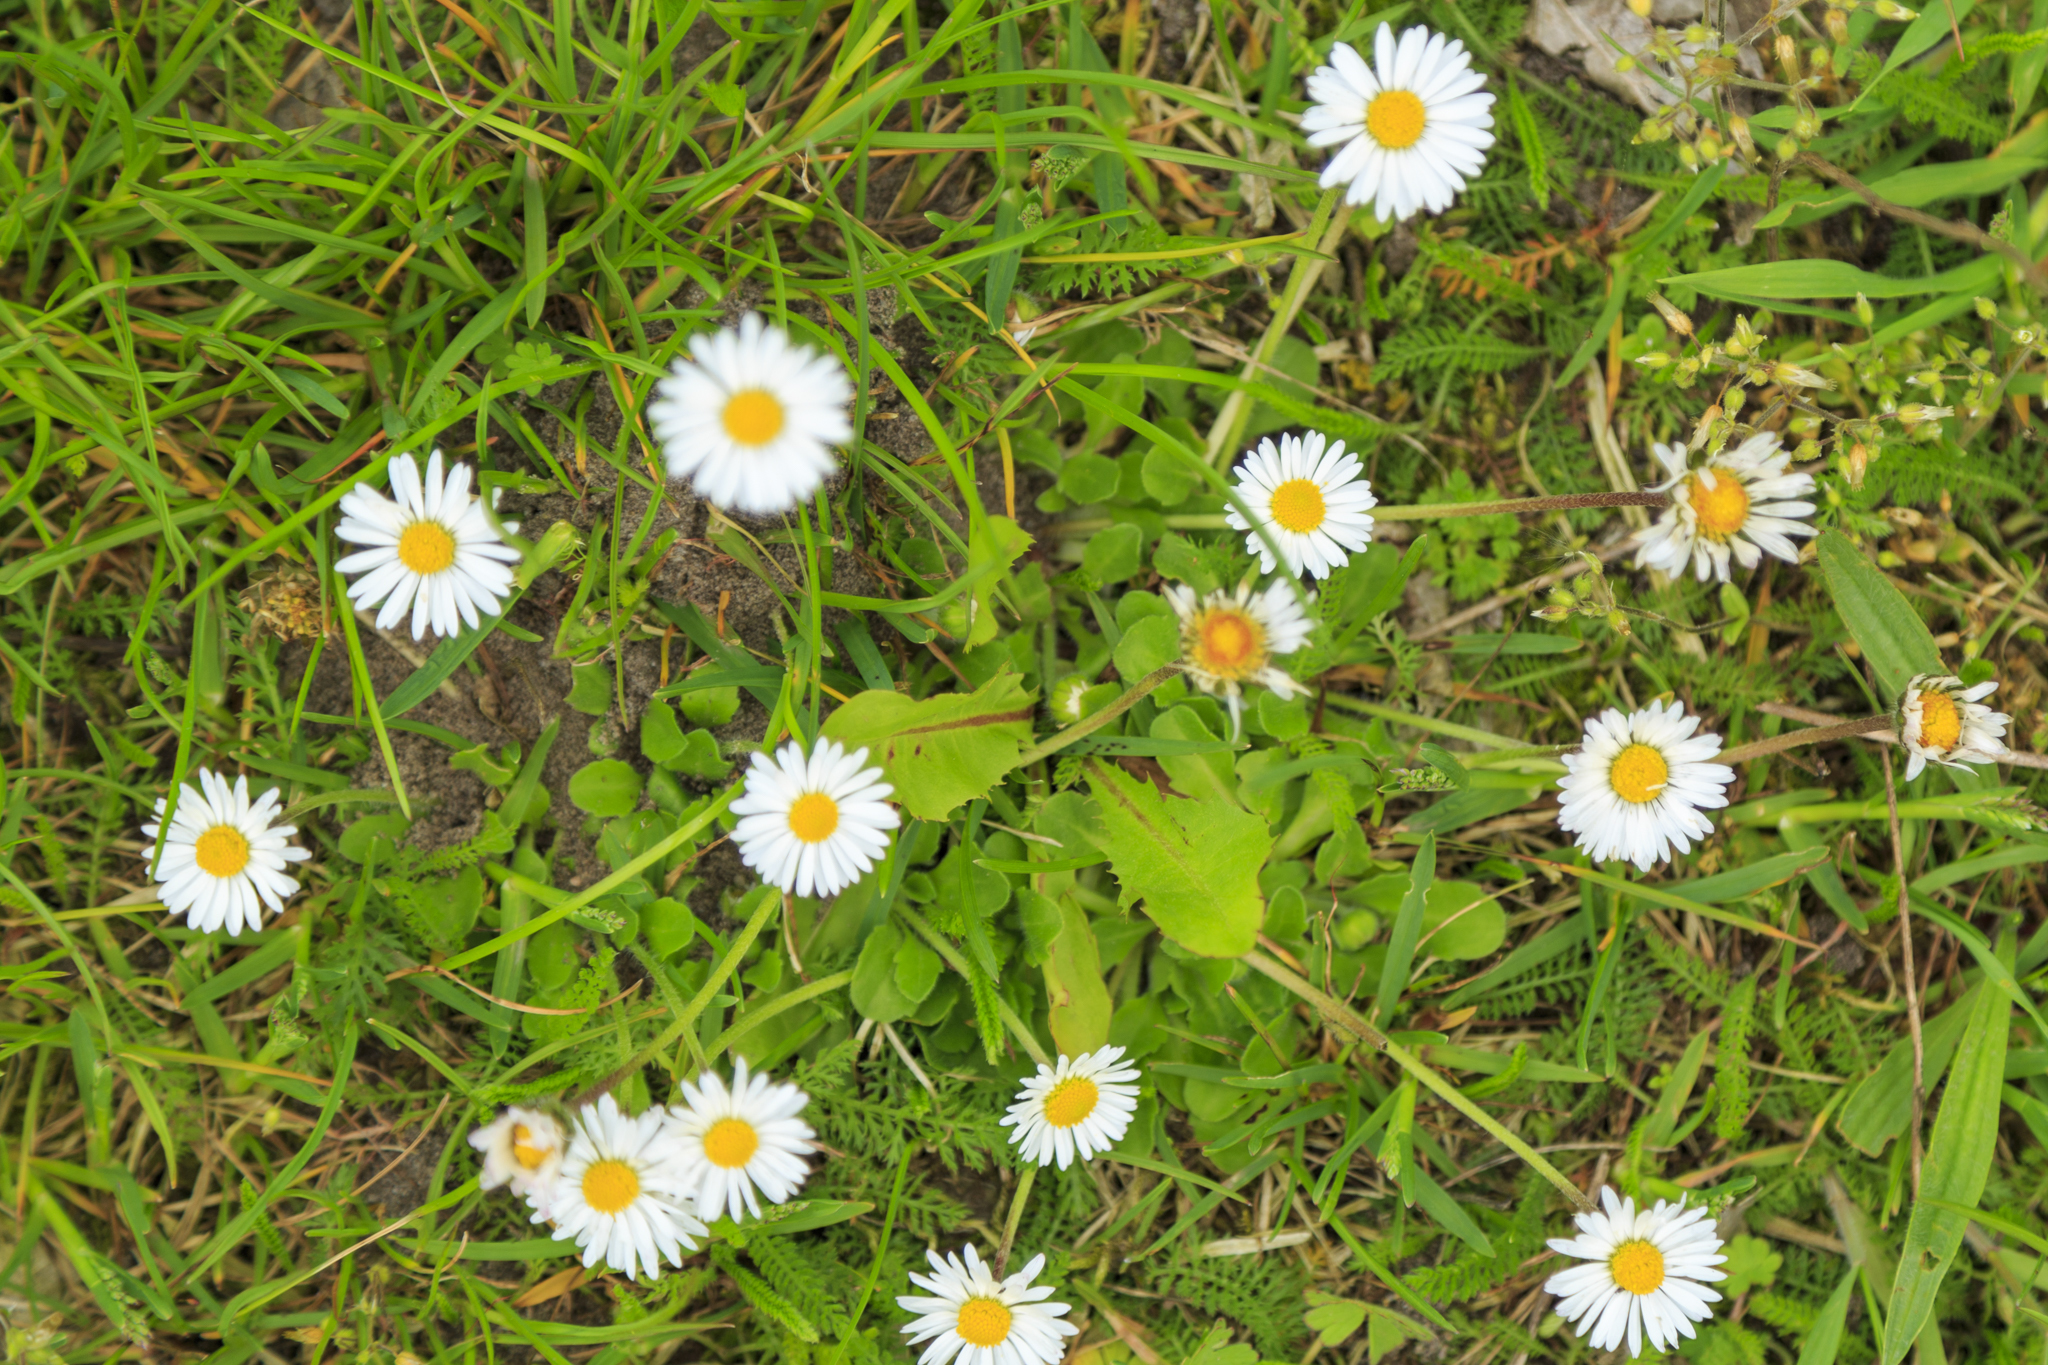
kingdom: Plantae
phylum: Tracheophyta
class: Magnoliopsida
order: Asterales
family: Asteraceae
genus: Bellis
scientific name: Bellis perennis
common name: Lawndaisy
